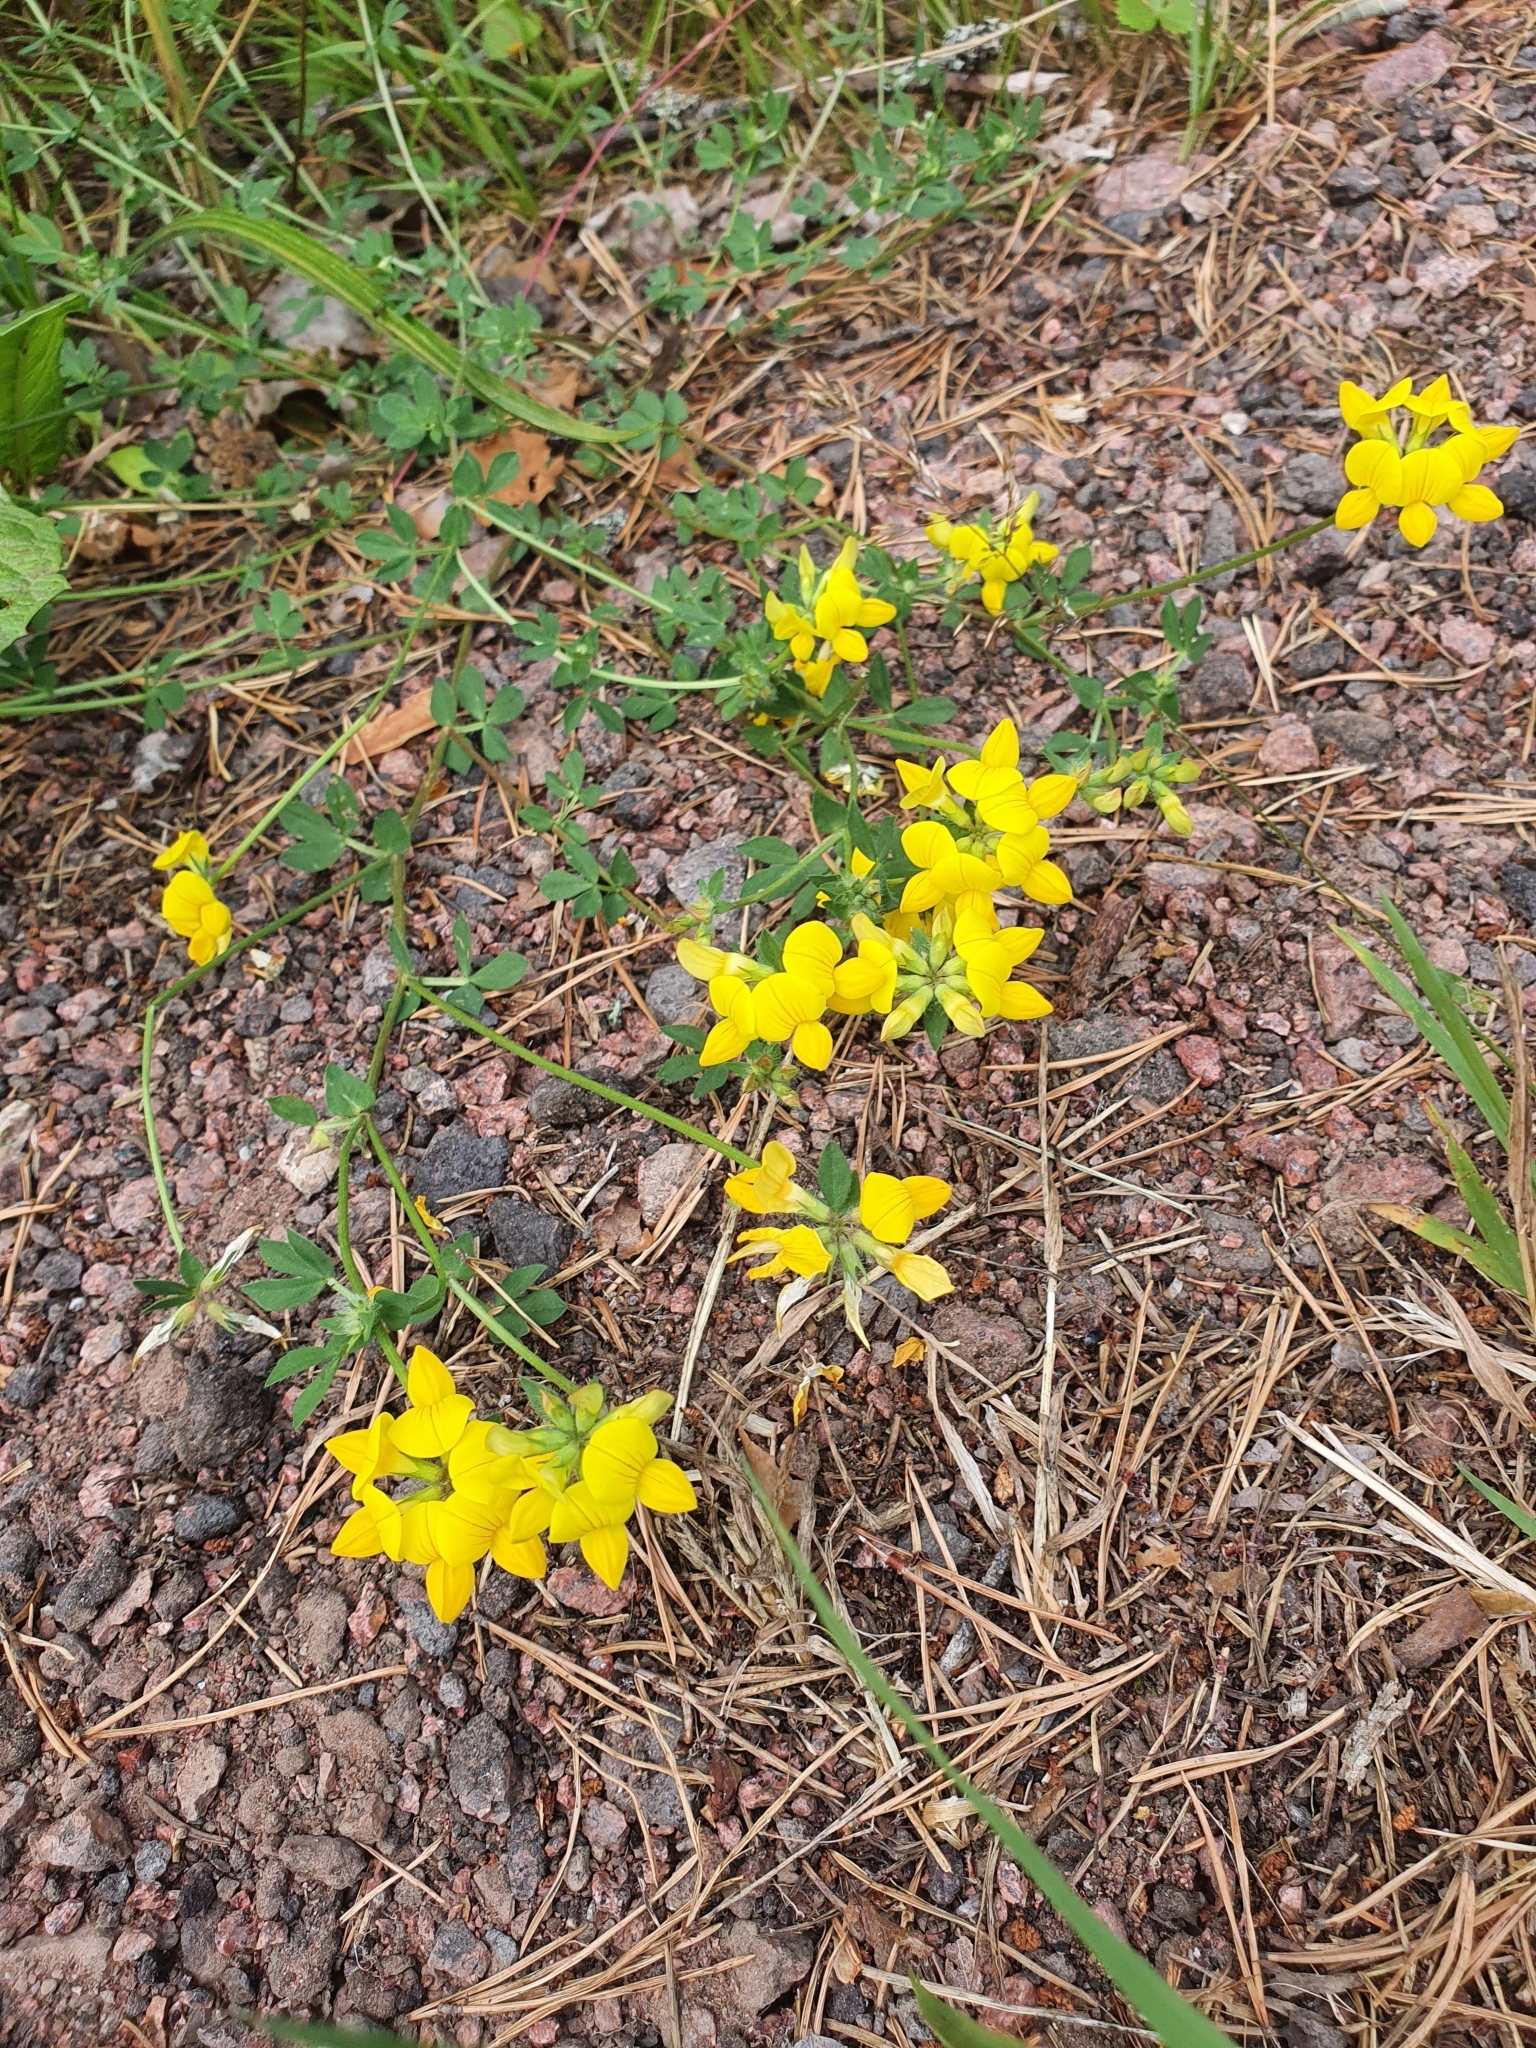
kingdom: Plantae
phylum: Tracheophyta
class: Magnoliopsida
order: Fabales
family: Fabaceae
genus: Lotus
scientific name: Lotus corniculatus
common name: Common bird's-foot-trefoil
